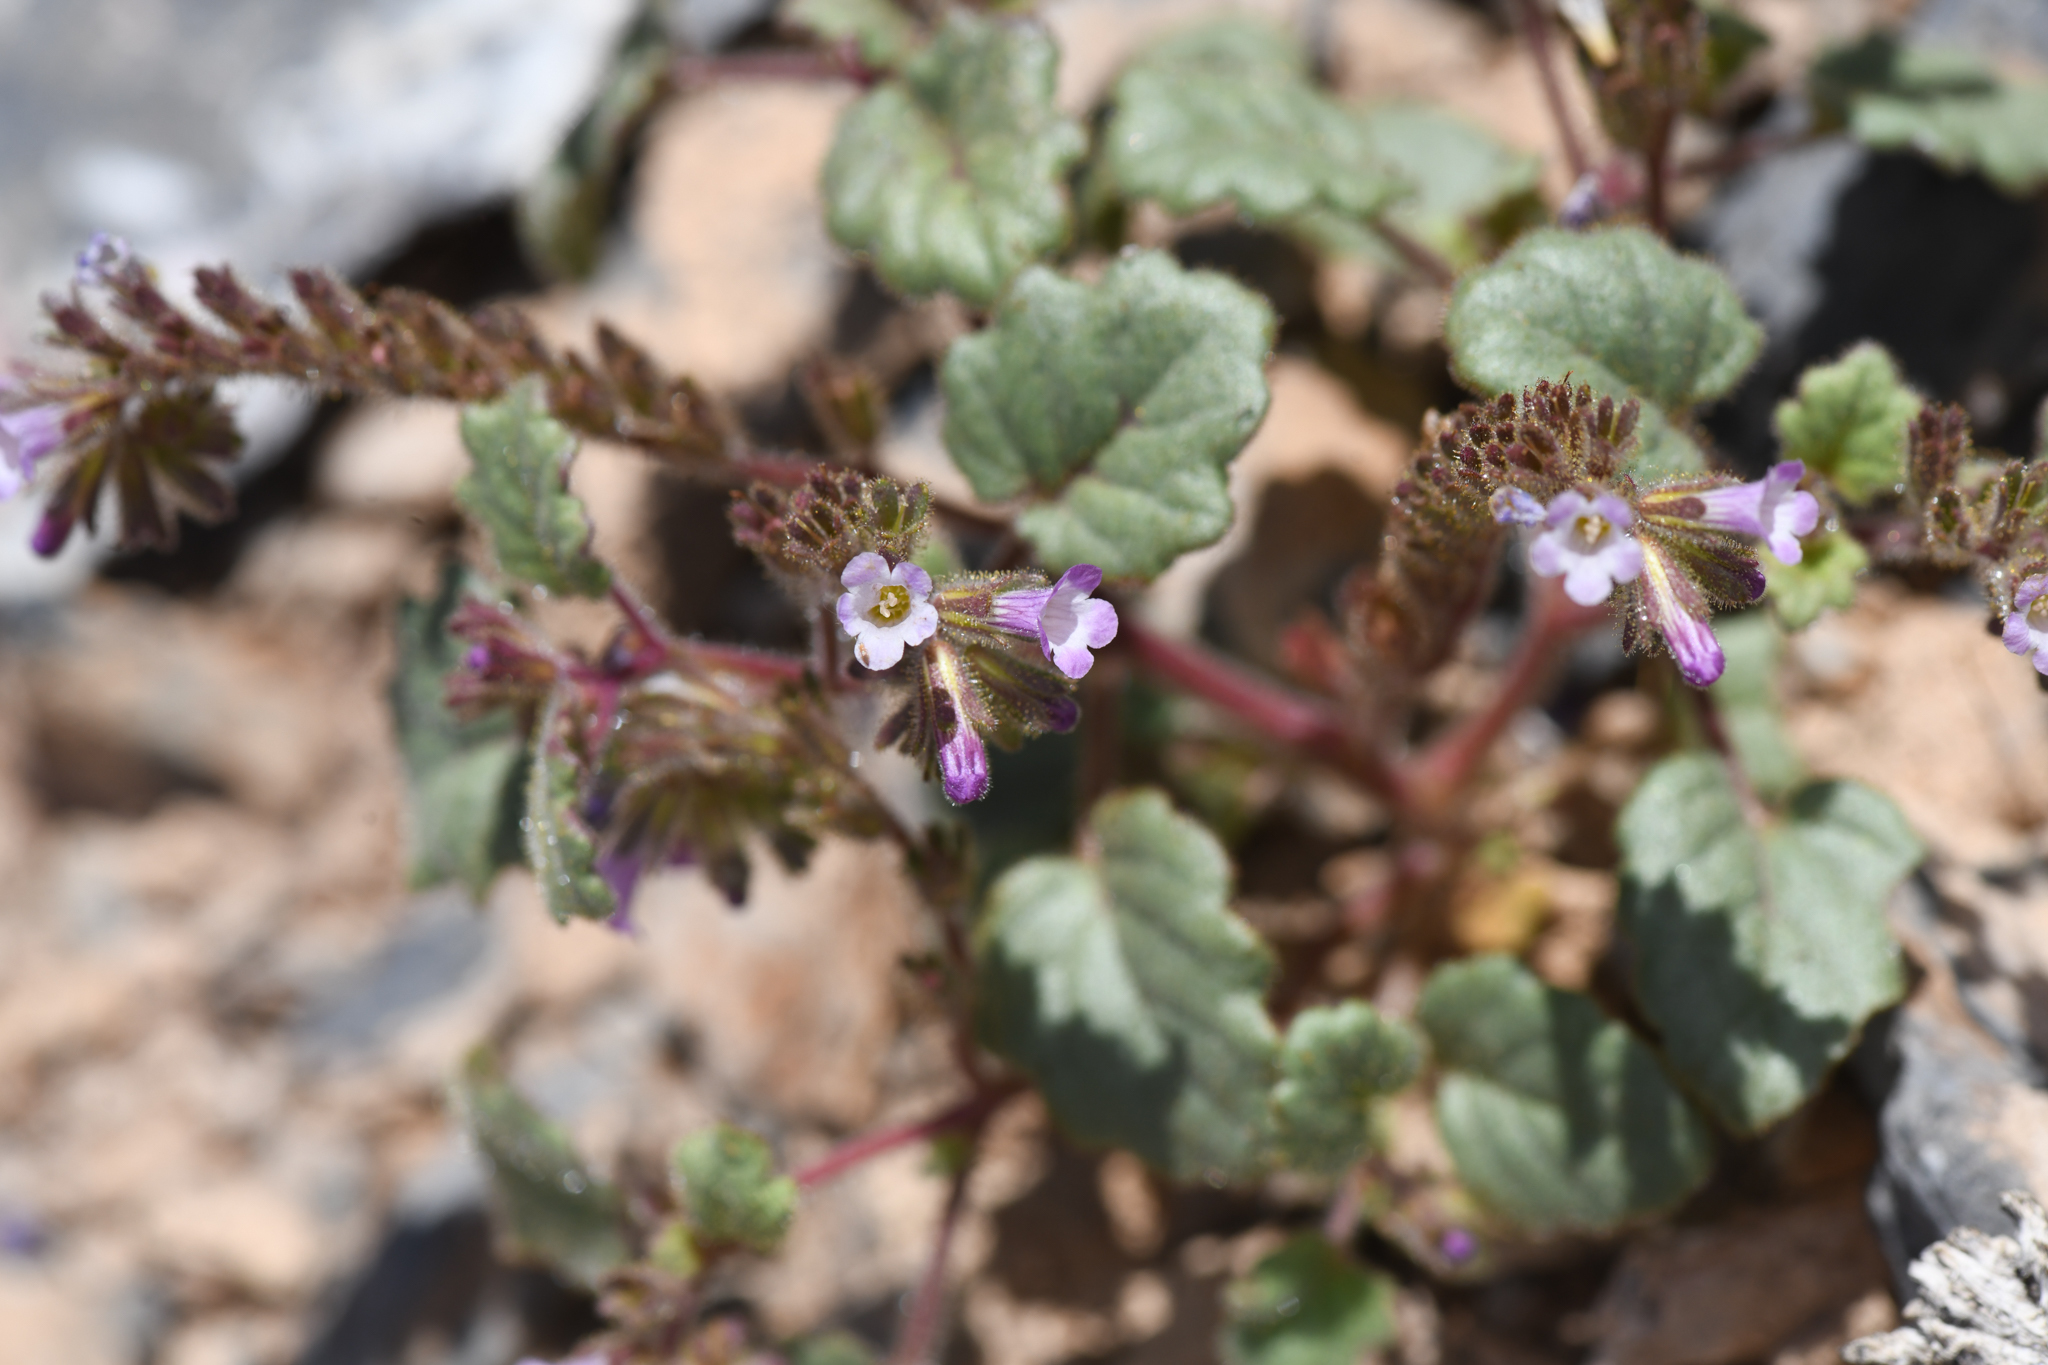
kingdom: Plantae
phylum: Tracheophyta
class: Magnoliopsida
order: Boraginales
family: Hydrophyllaceae
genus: Phacelia
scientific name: Phacelia mustelina
